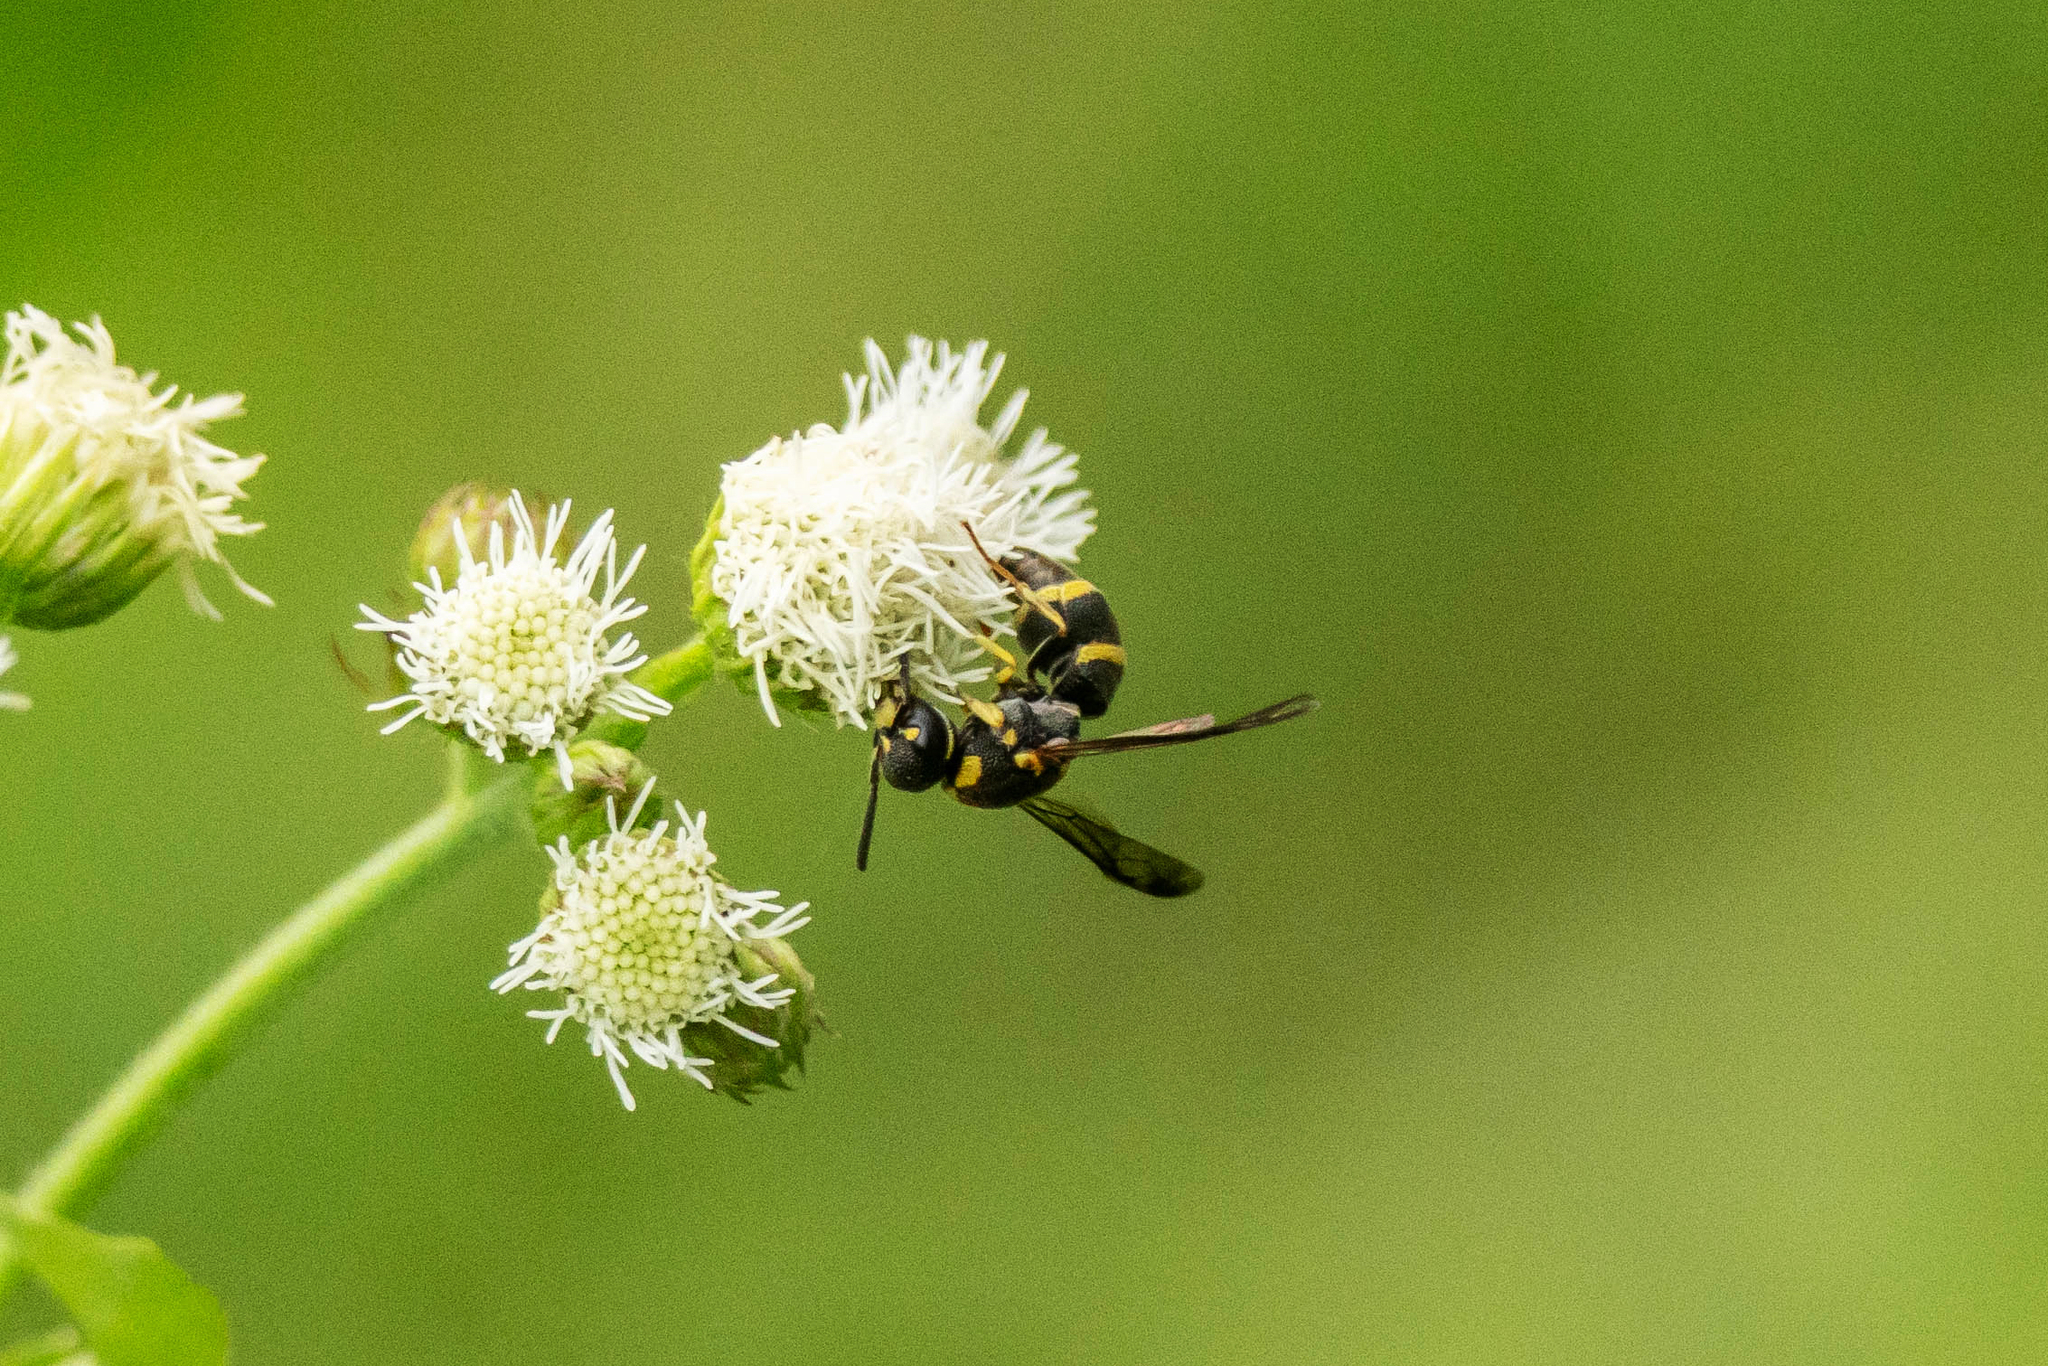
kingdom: Animalia
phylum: Arthropoda
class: Insecta
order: Hymenoptera
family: Eumenidae
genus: Parancistrocerus
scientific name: Parancistrocerus hongkongensis
